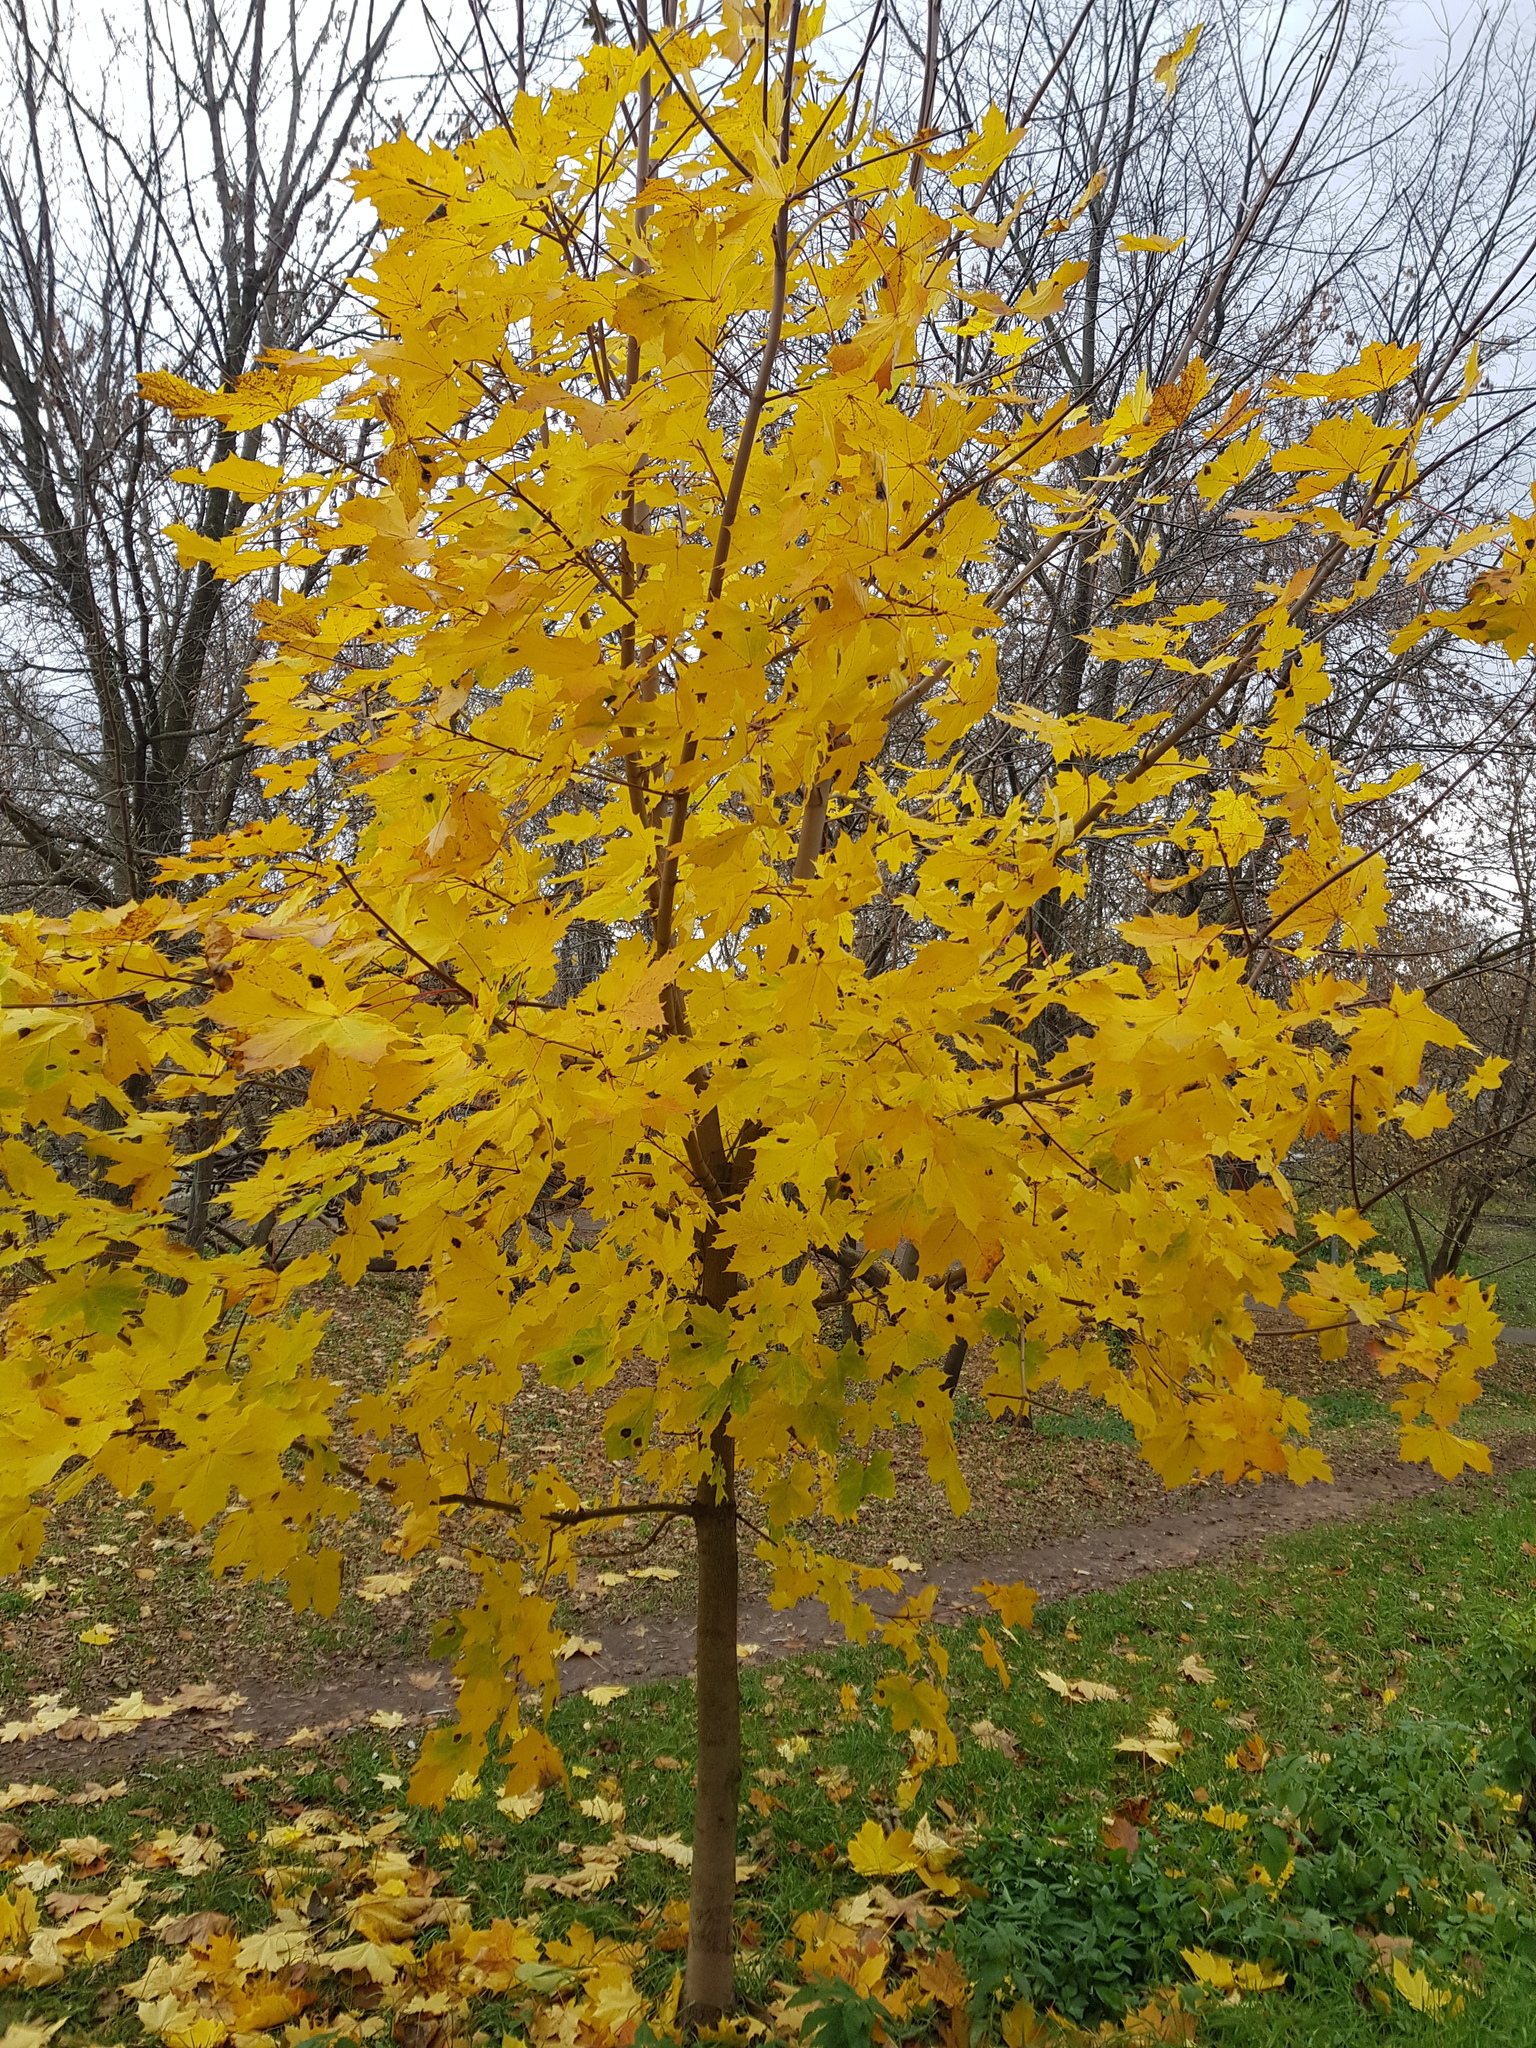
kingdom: Plantae
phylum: Tracheophyta
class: Magnoliopsida
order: Sapindales
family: Sapindaceae
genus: Acer
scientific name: Acer platanoides
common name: Norway maple
